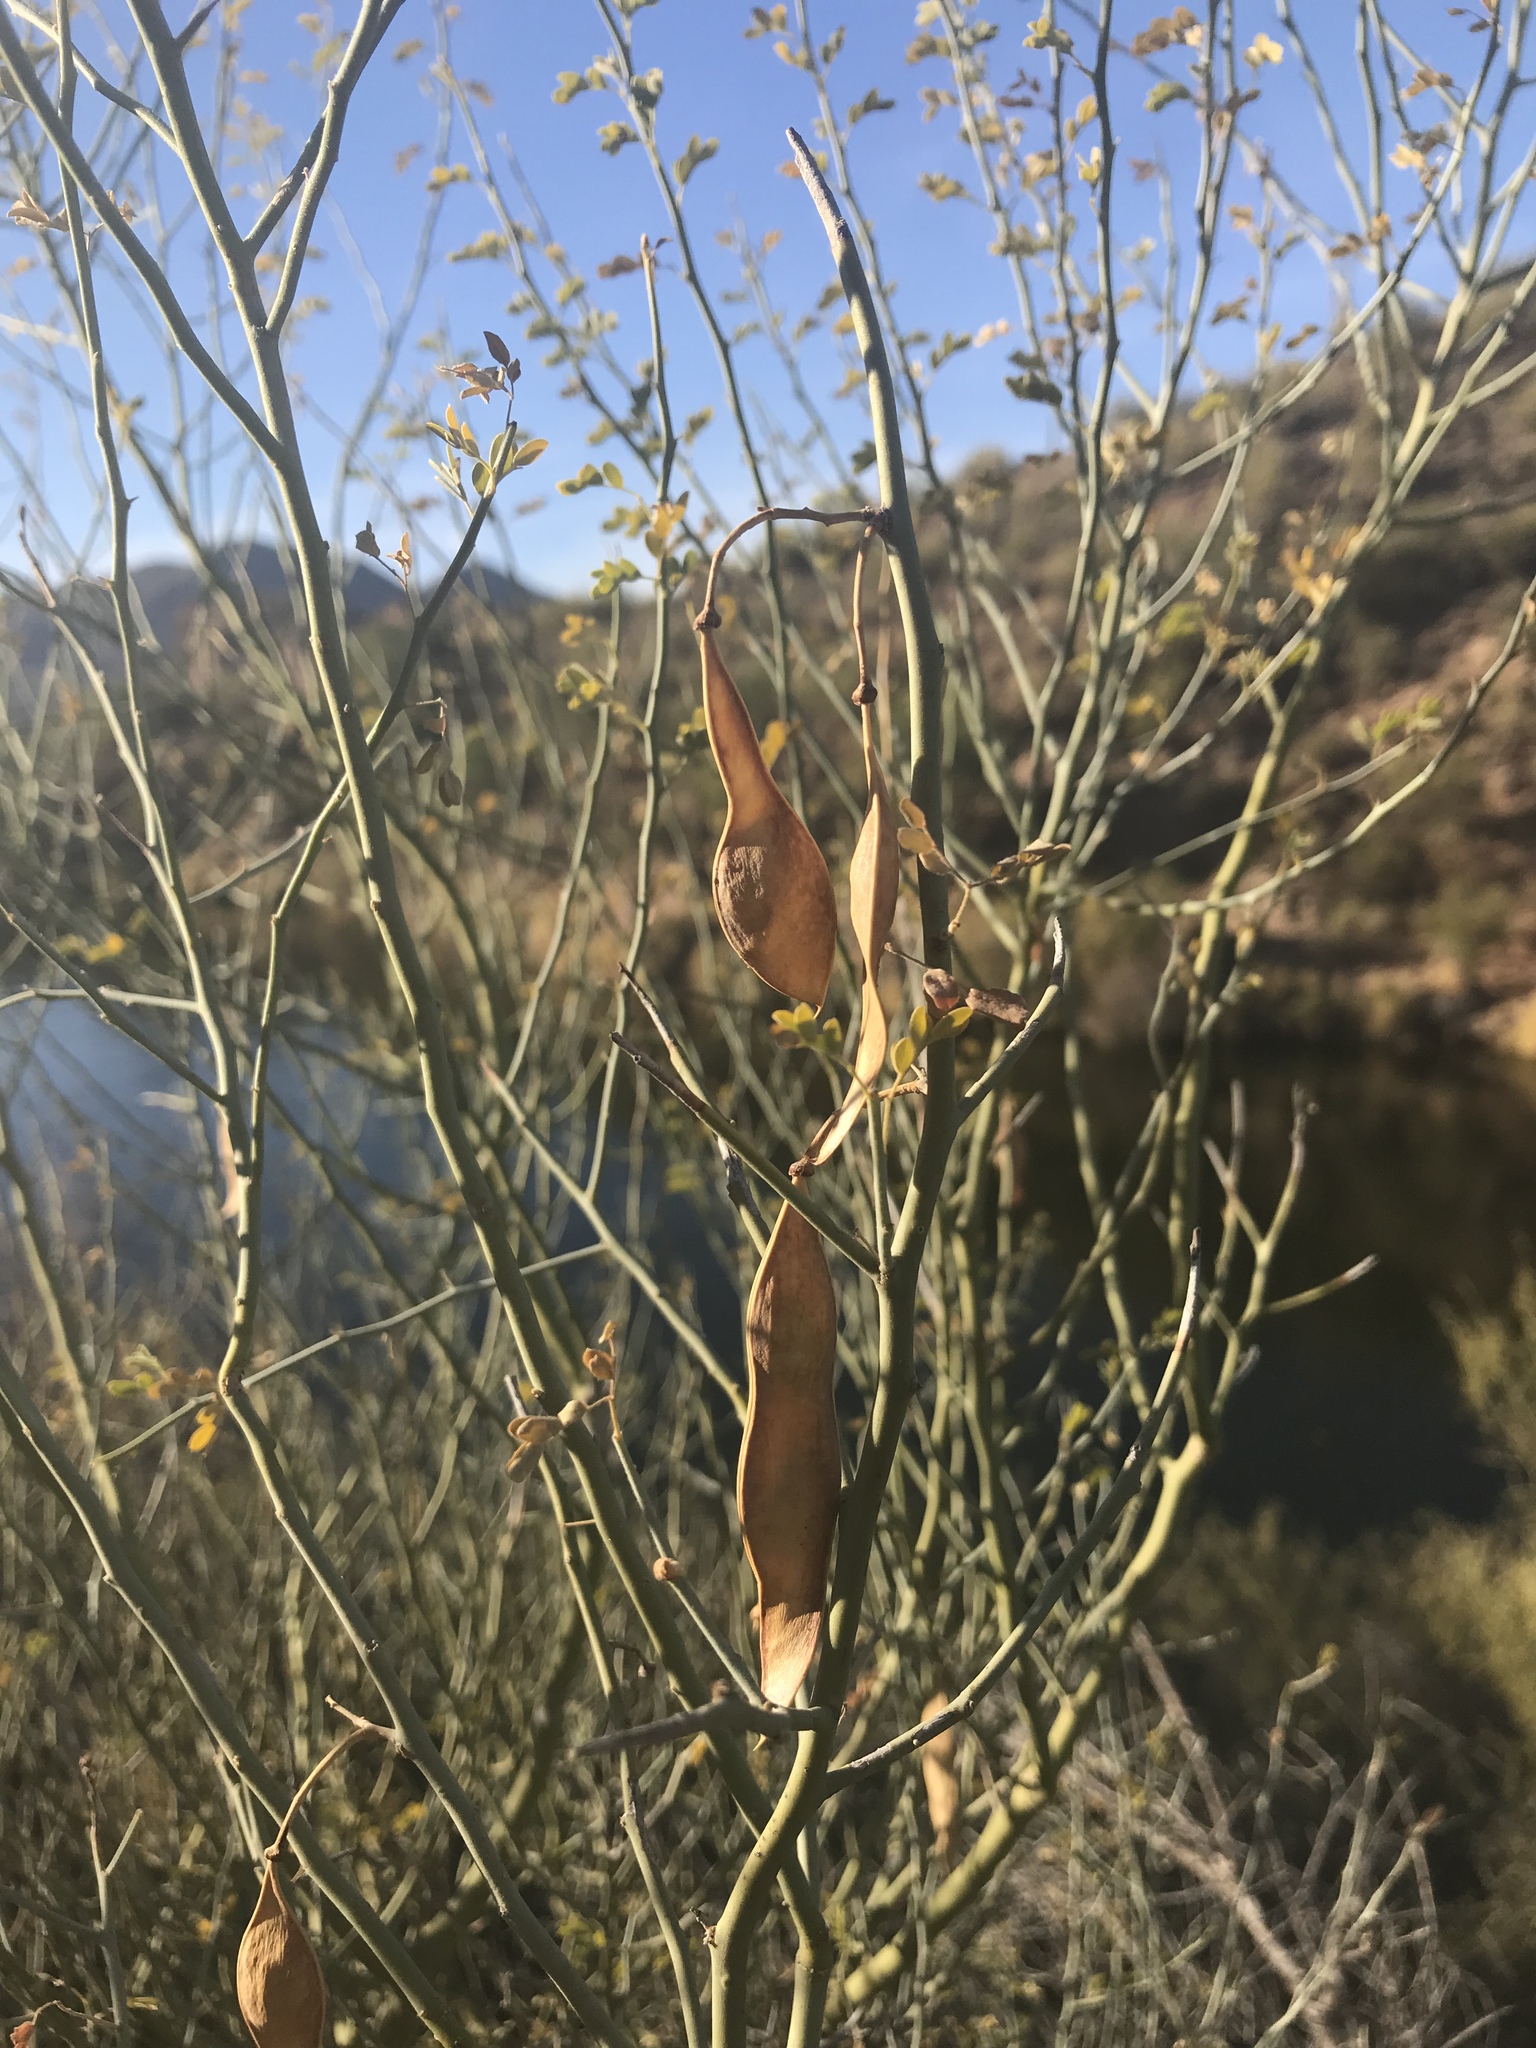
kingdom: Plantae
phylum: Tracheophyta
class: Magnoliopsida
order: Fabales
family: Fabaceae
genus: Parkinsonia
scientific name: Parkinsonia florida
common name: Blue paloverde
